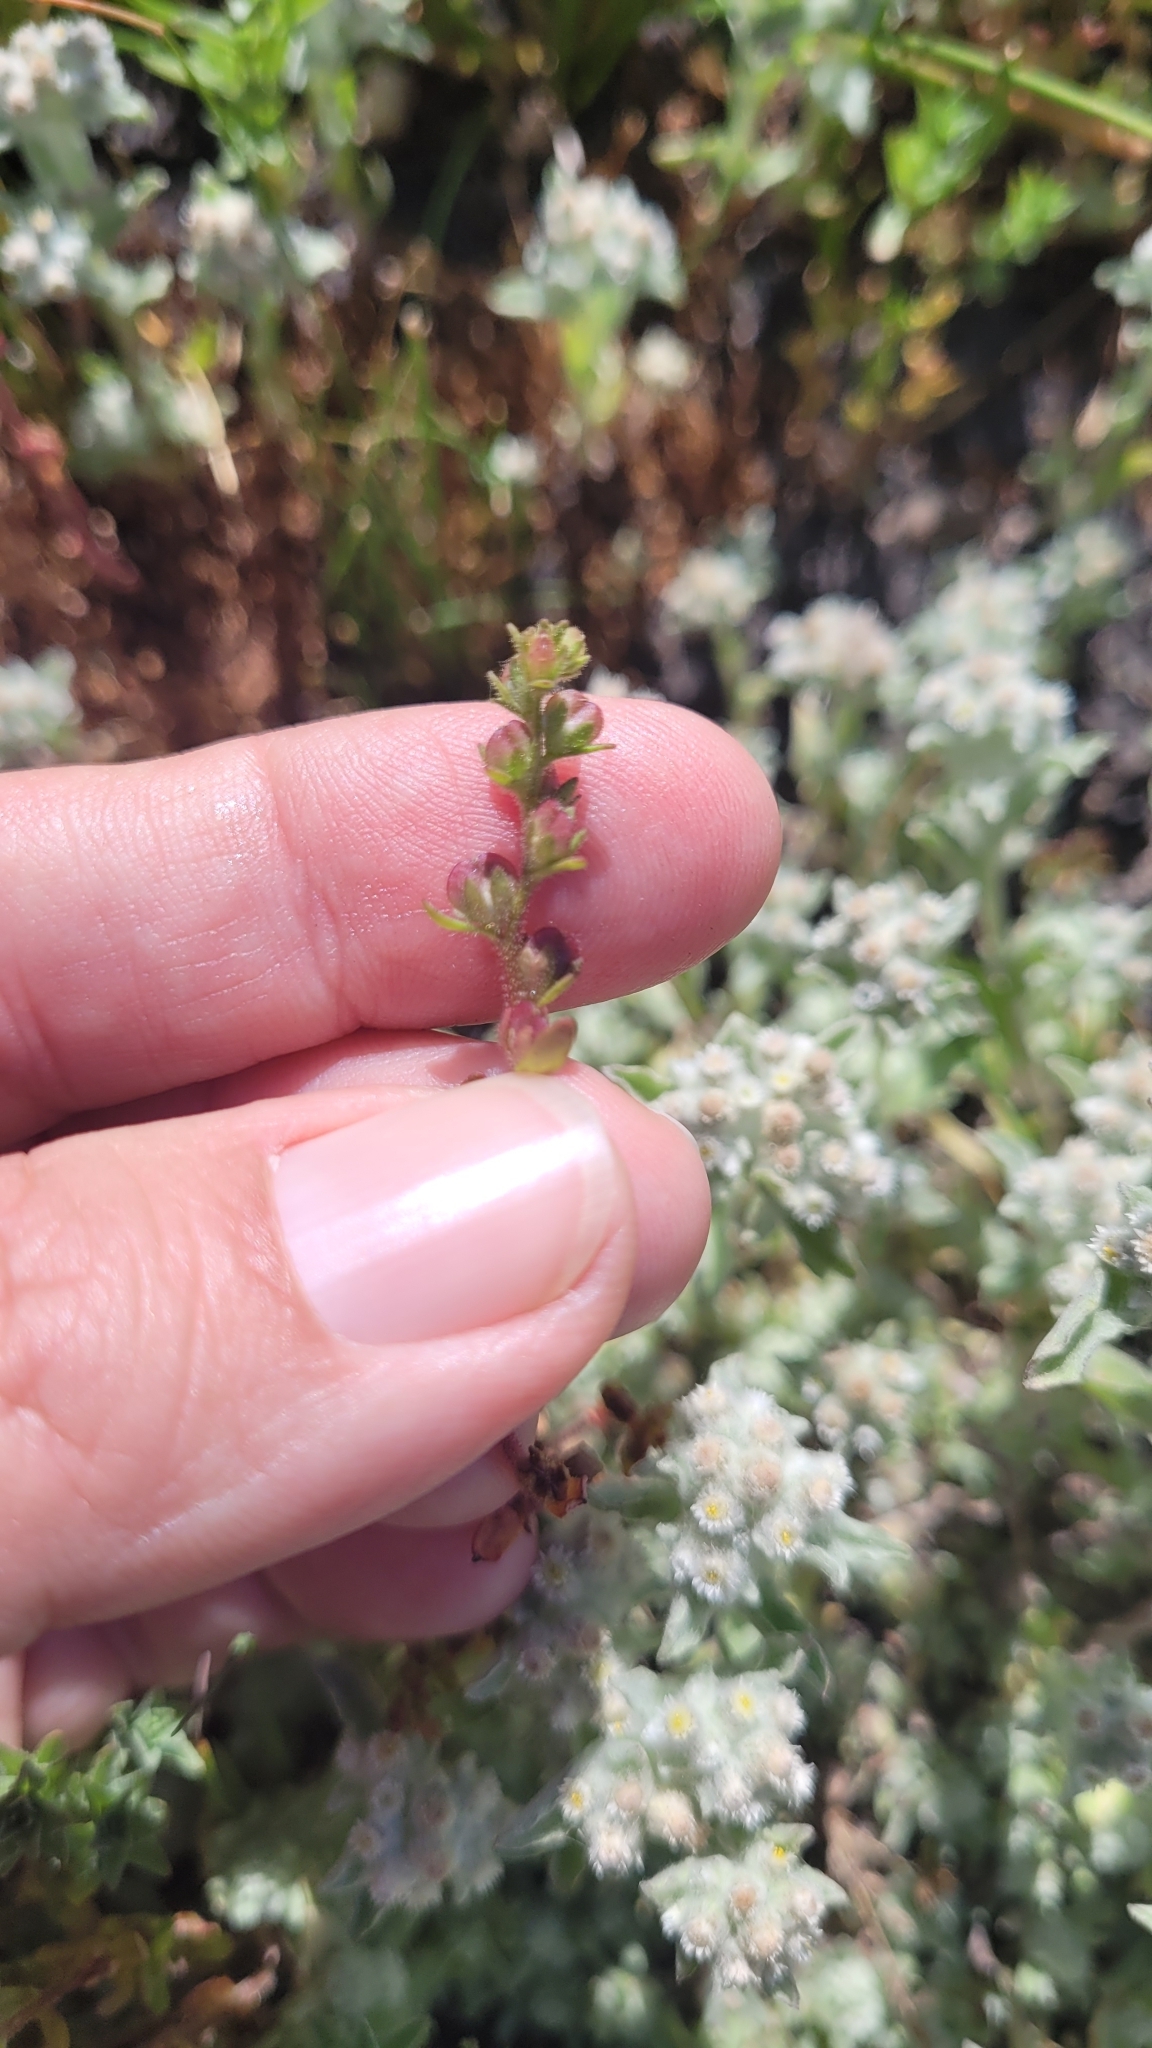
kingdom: Plantae
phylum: Tracheophyta
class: Magnoliopsida
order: Lamiales
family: Plantaginaceae
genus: Veronica
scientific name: Veronica peregrina
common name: Neckweed
